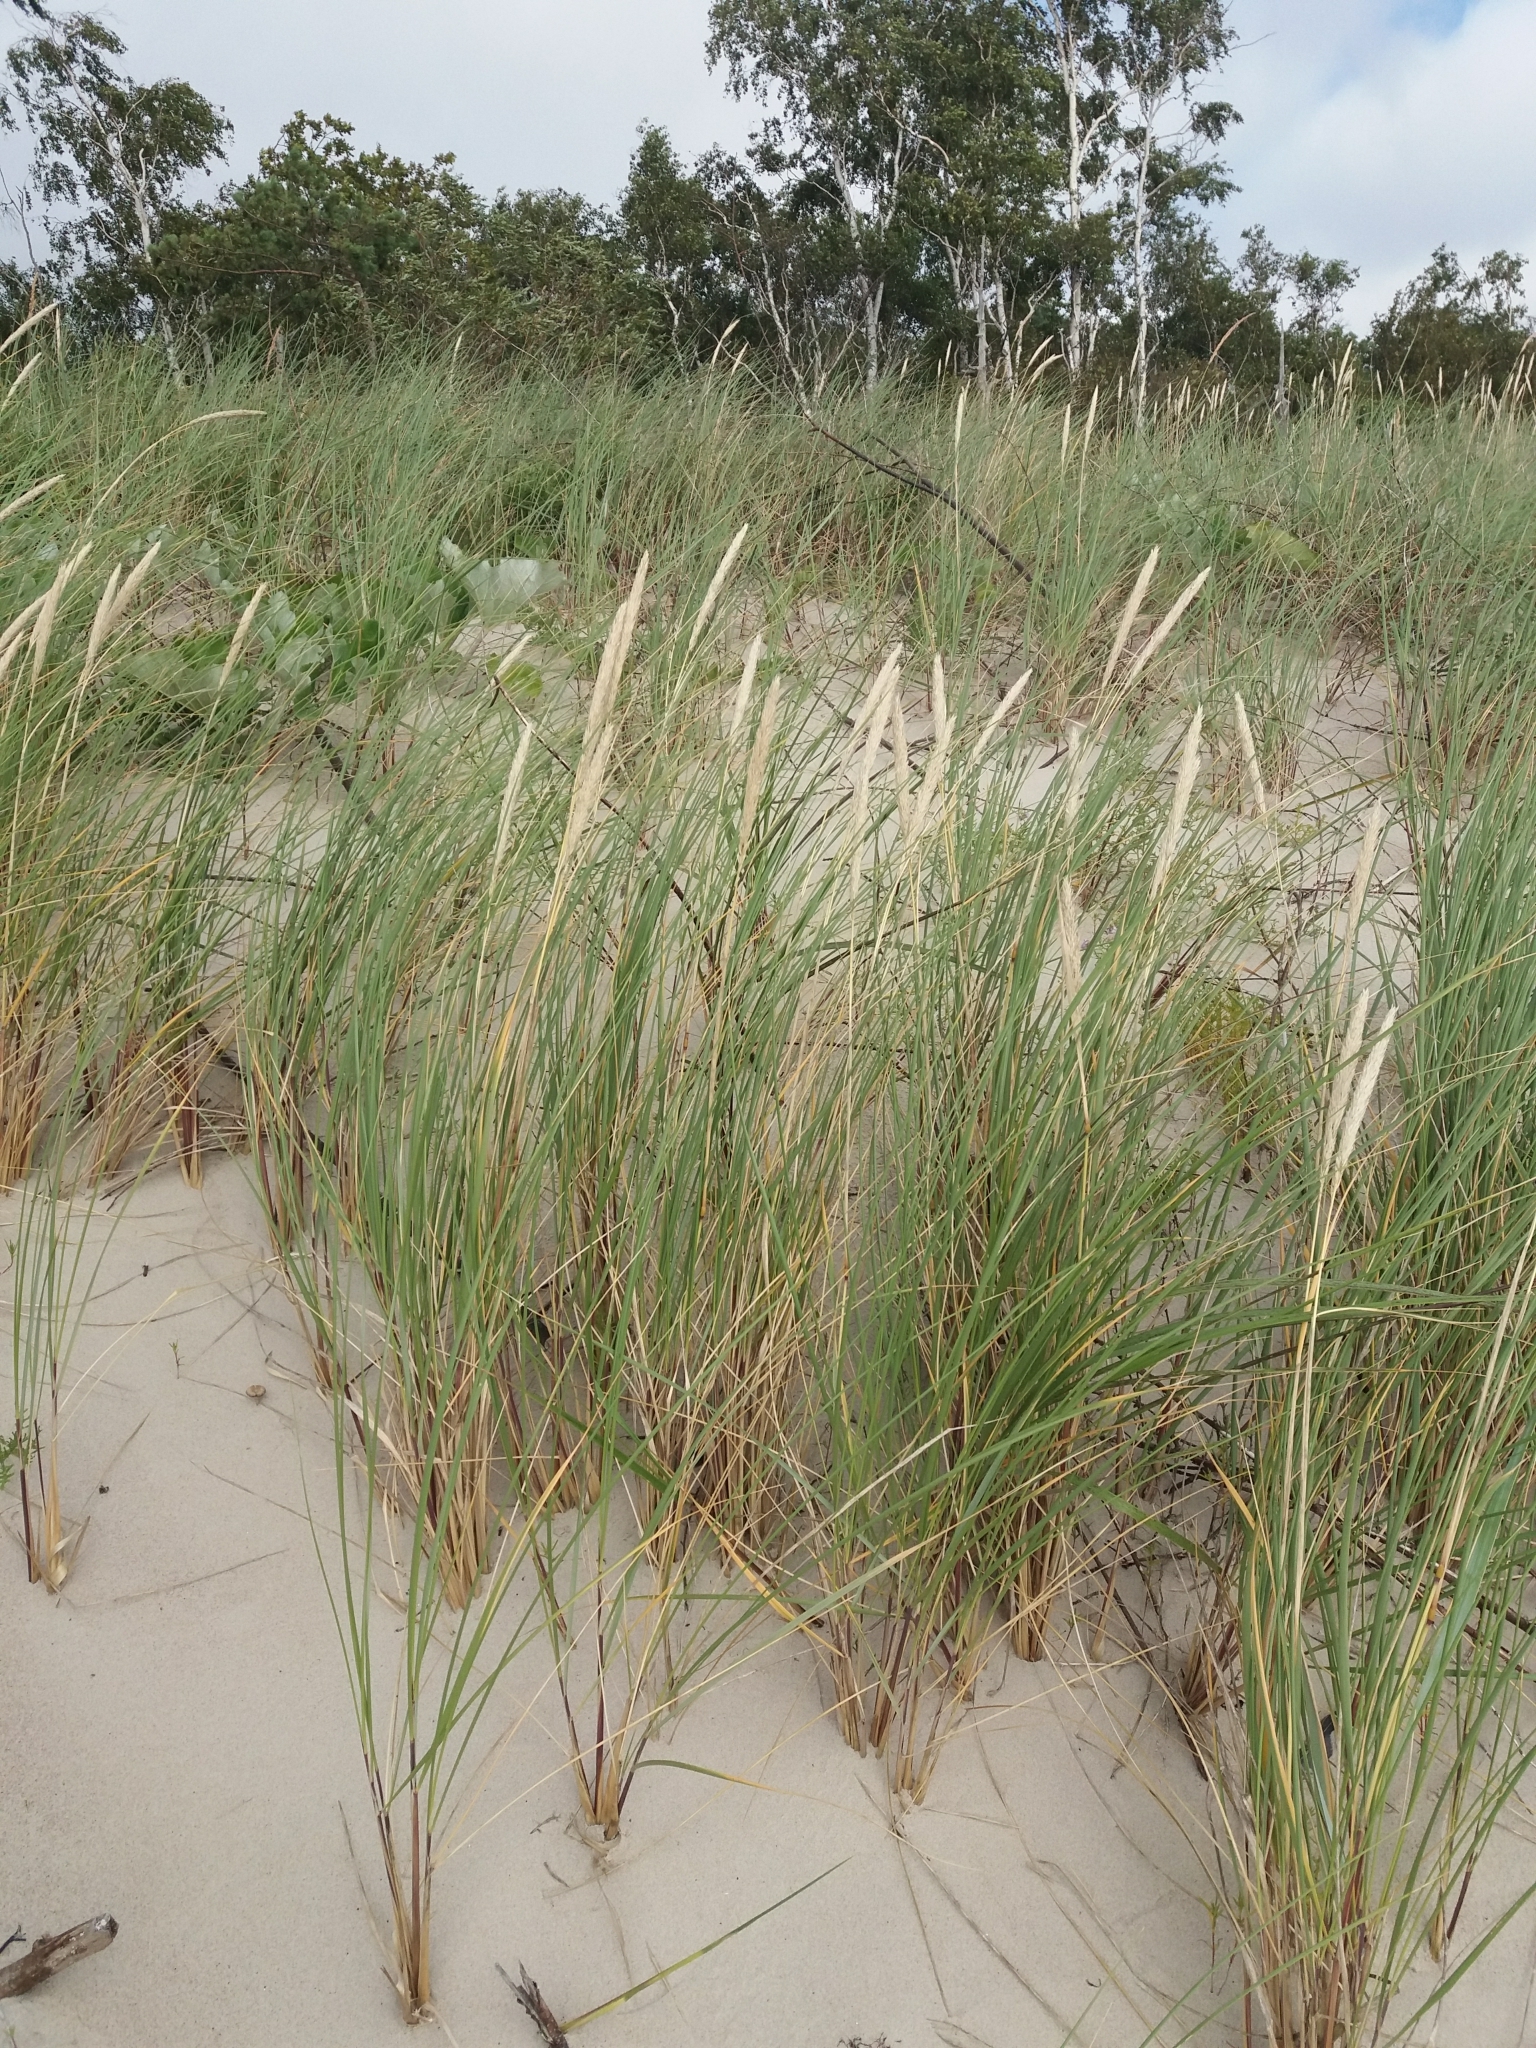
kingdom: Plantae
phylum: Tracheophyta
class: Liliopsida
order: Poales
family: Poaceae
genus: Calamagrostis
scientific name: Calamagrostis arenaria
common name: European beachgrass
